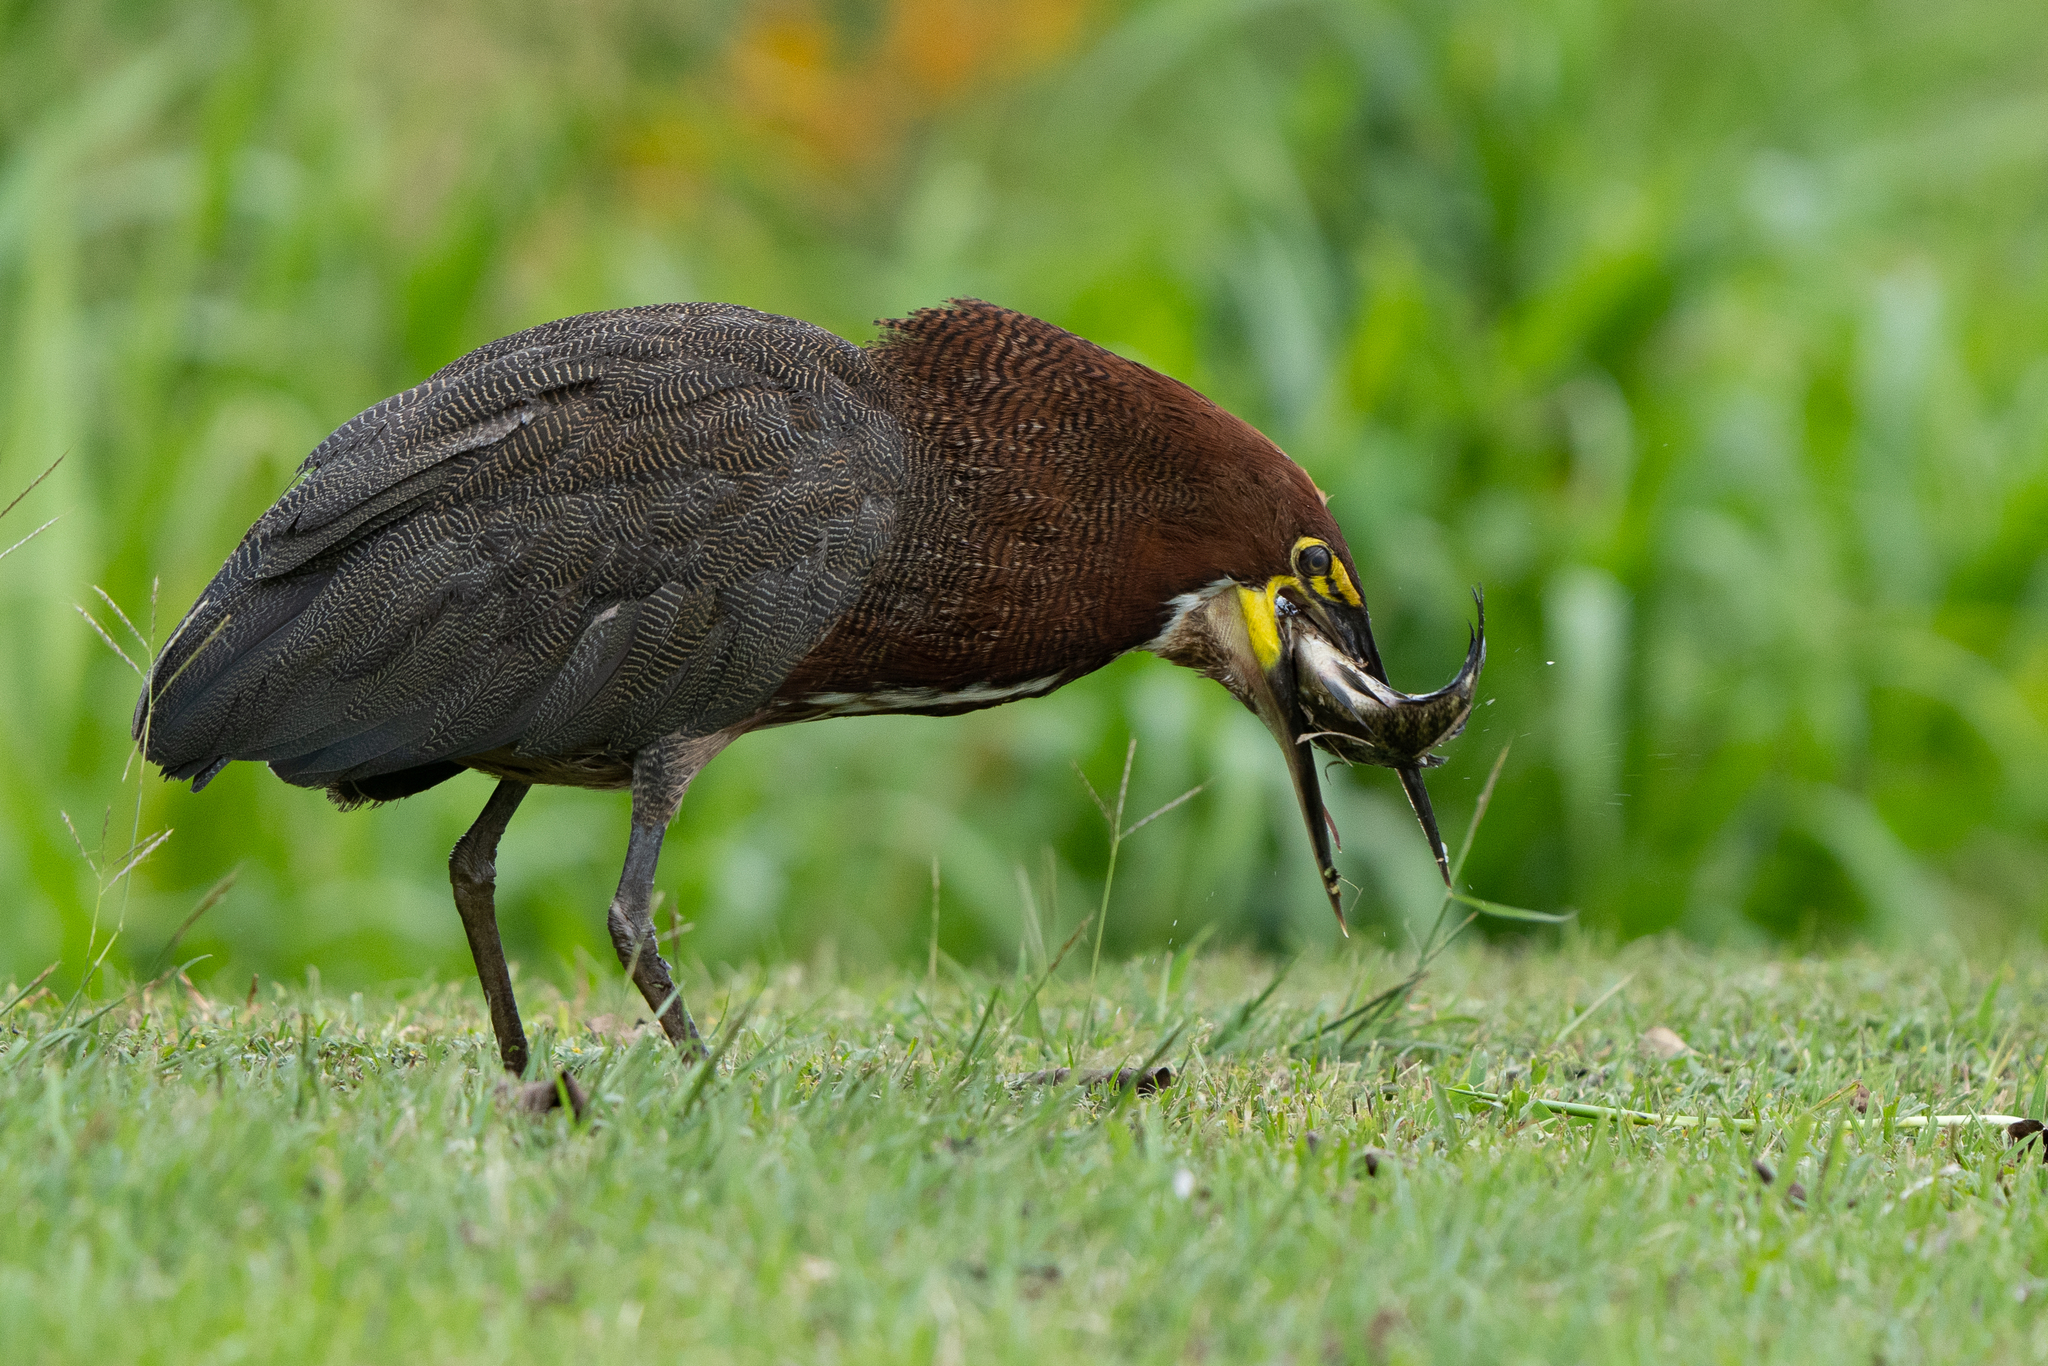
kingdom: Animalia
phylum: Chordata
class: Aves
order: Pelecaniformes
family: Ardeidae
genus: Tigrisoma
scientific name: Tigrisoma lineatum
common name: Rufescent tiger-heron
